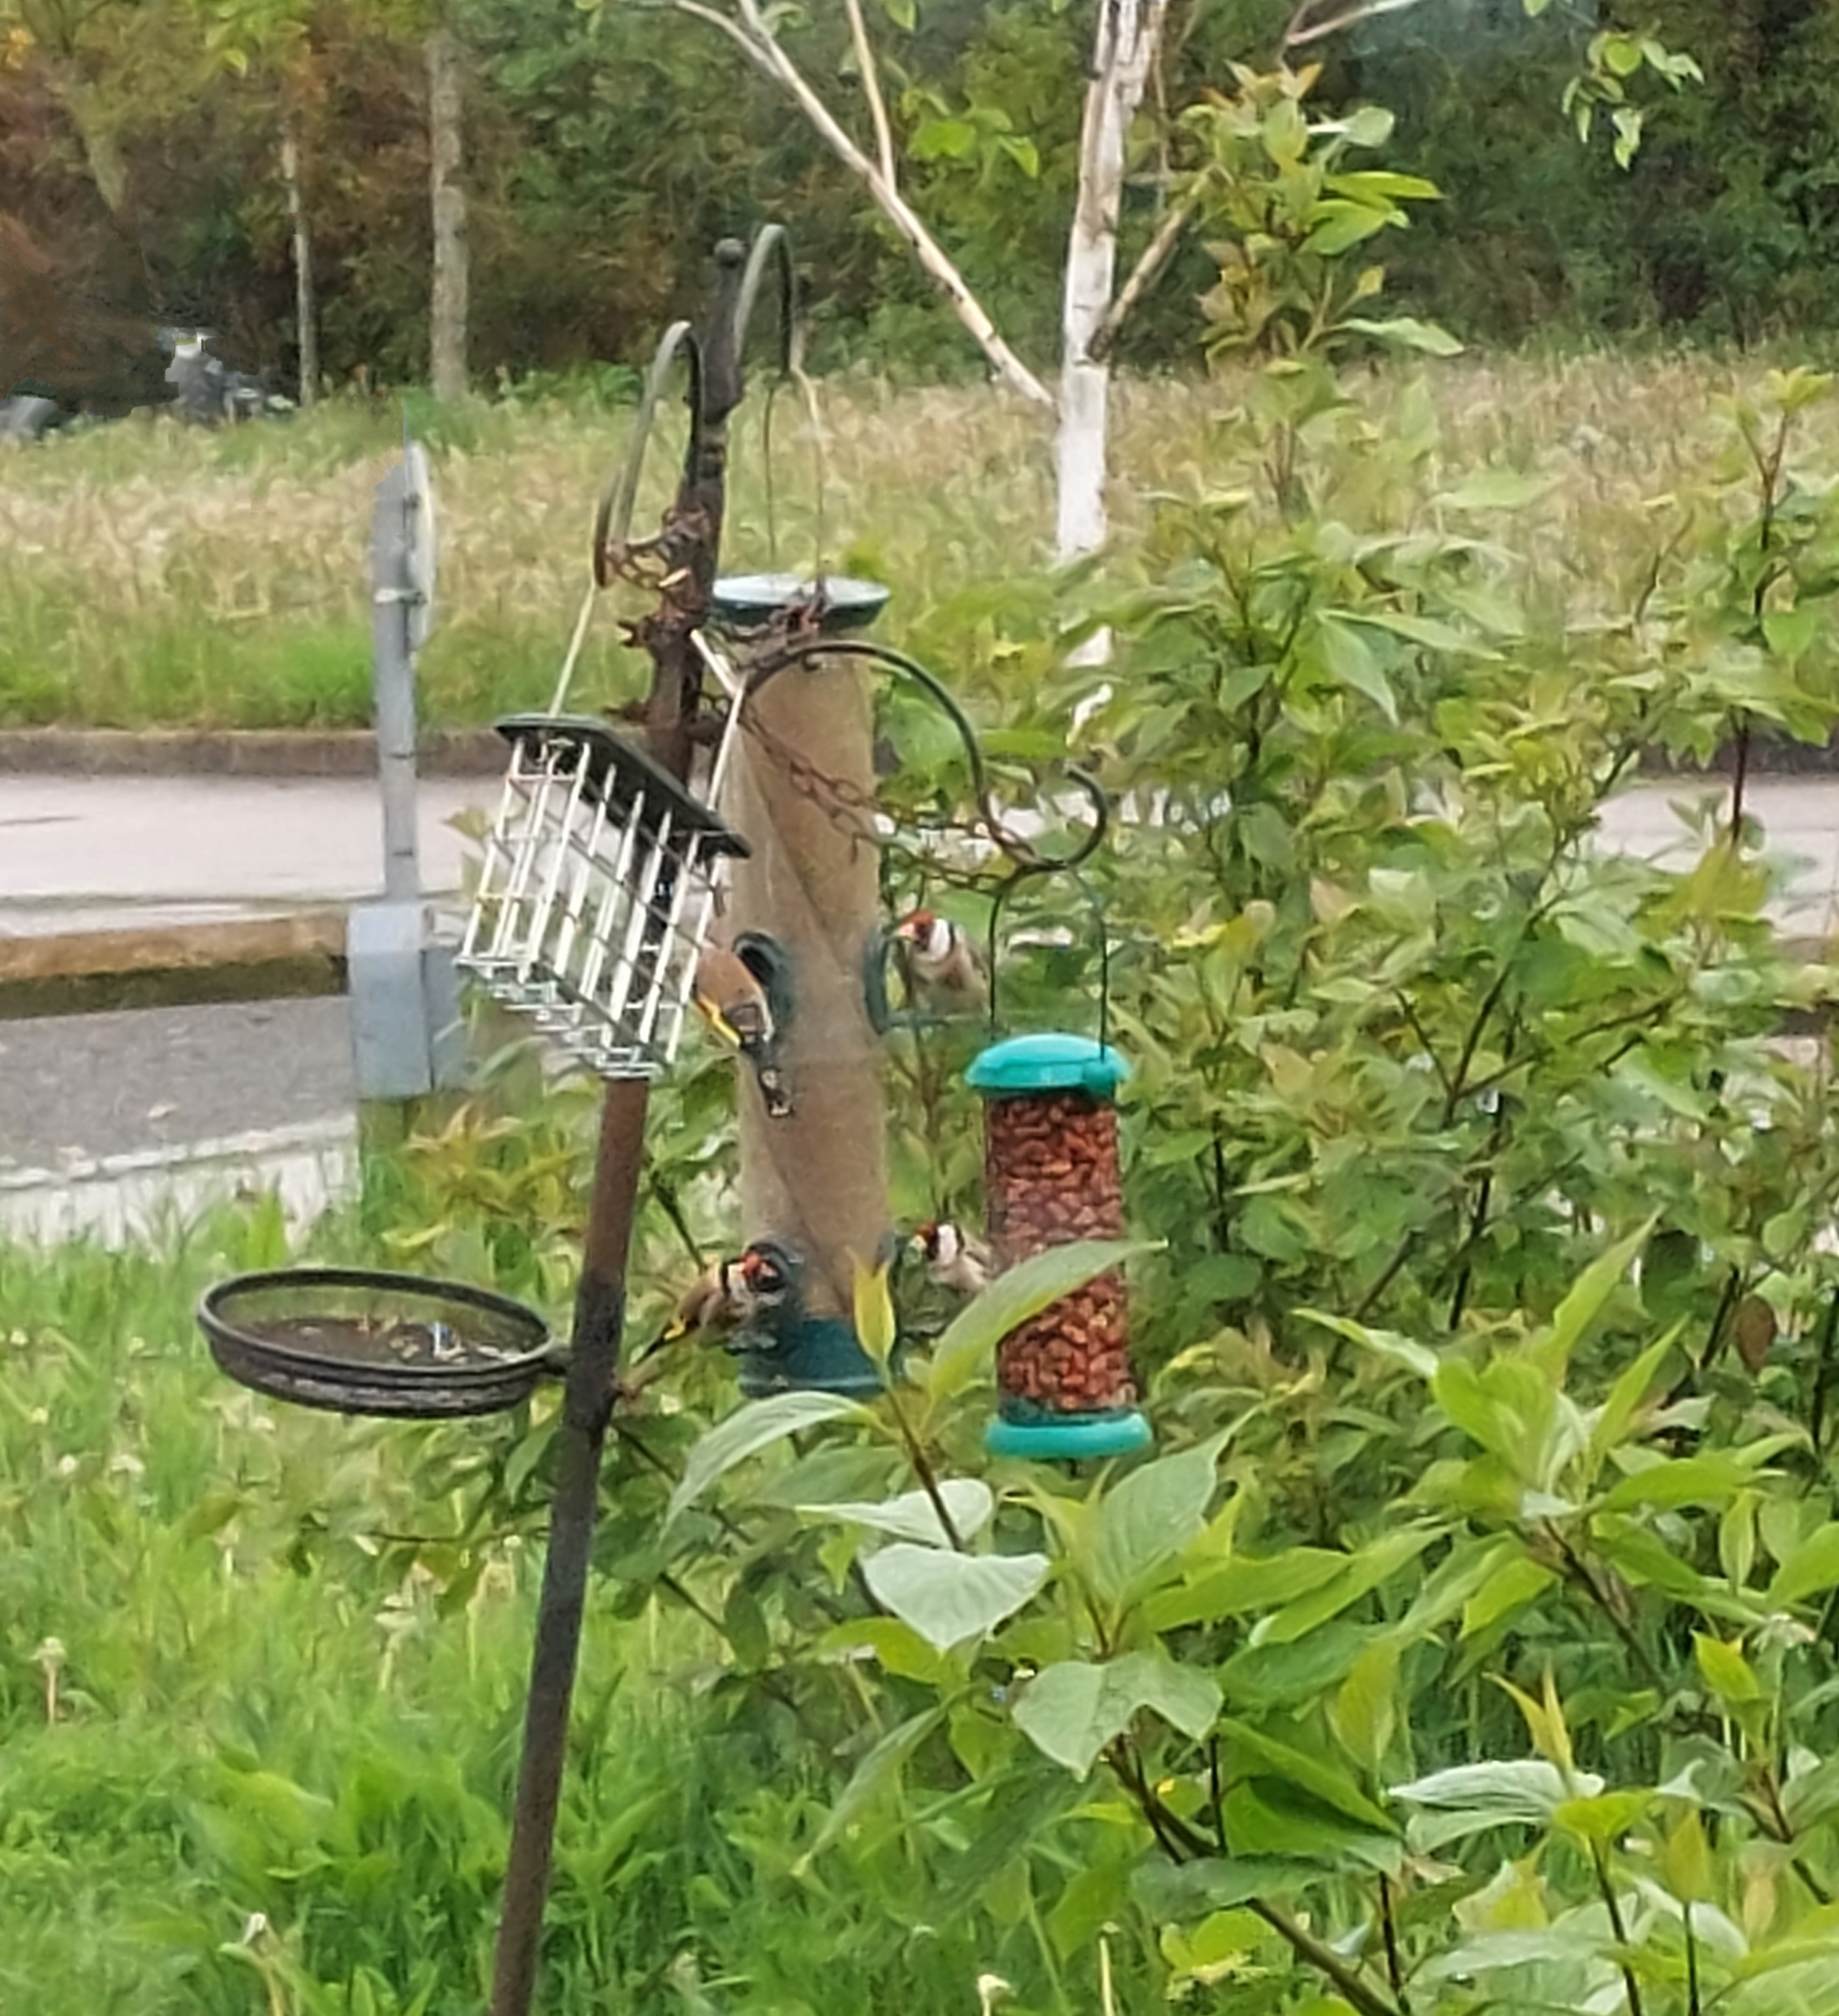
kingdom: Animalia
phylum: Chordata
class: Aves
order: Passeriformes
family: Fringillidae
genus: Carduelis
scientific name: Carduelis carduelis
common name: European goldfinch
